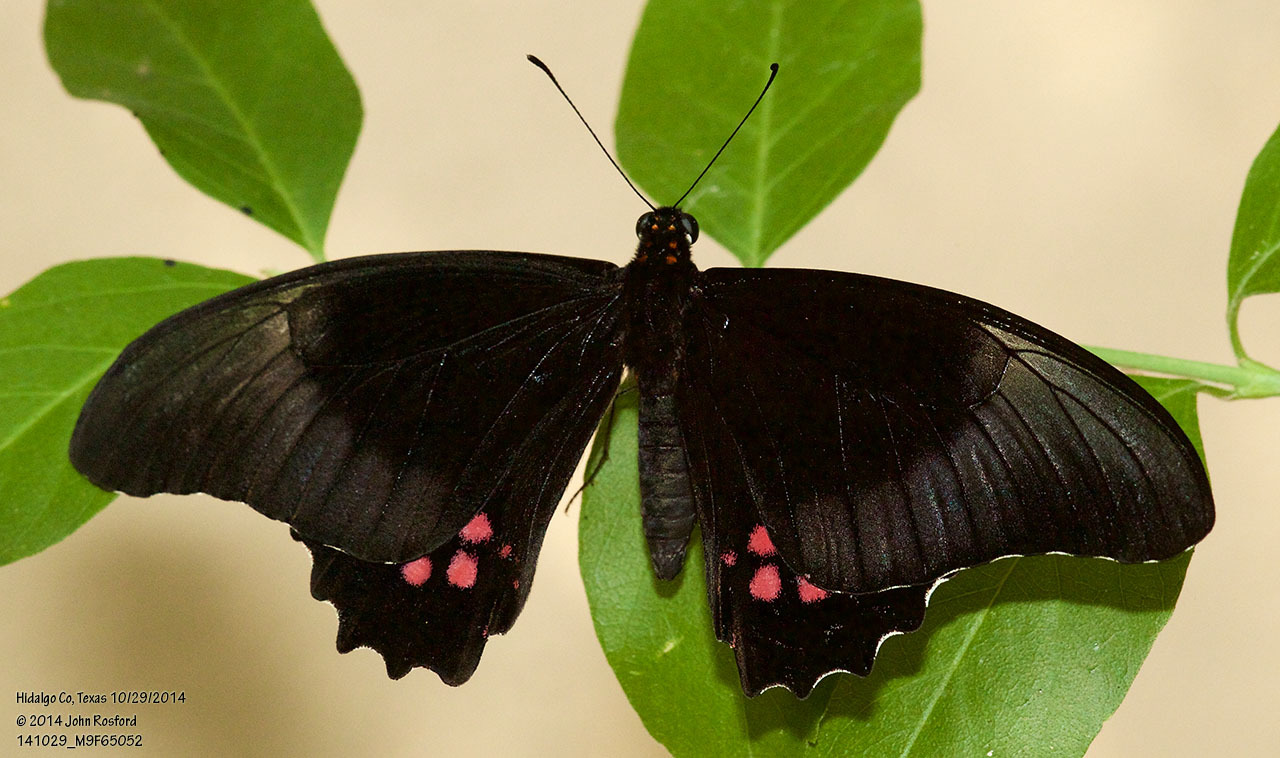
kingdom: Animalia
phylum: Arthropoda
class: Insecta
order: Lepidoptera
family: Papilionidae
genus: Papilio
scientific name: Papilio anchisiades
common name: Idaes swallowtail
